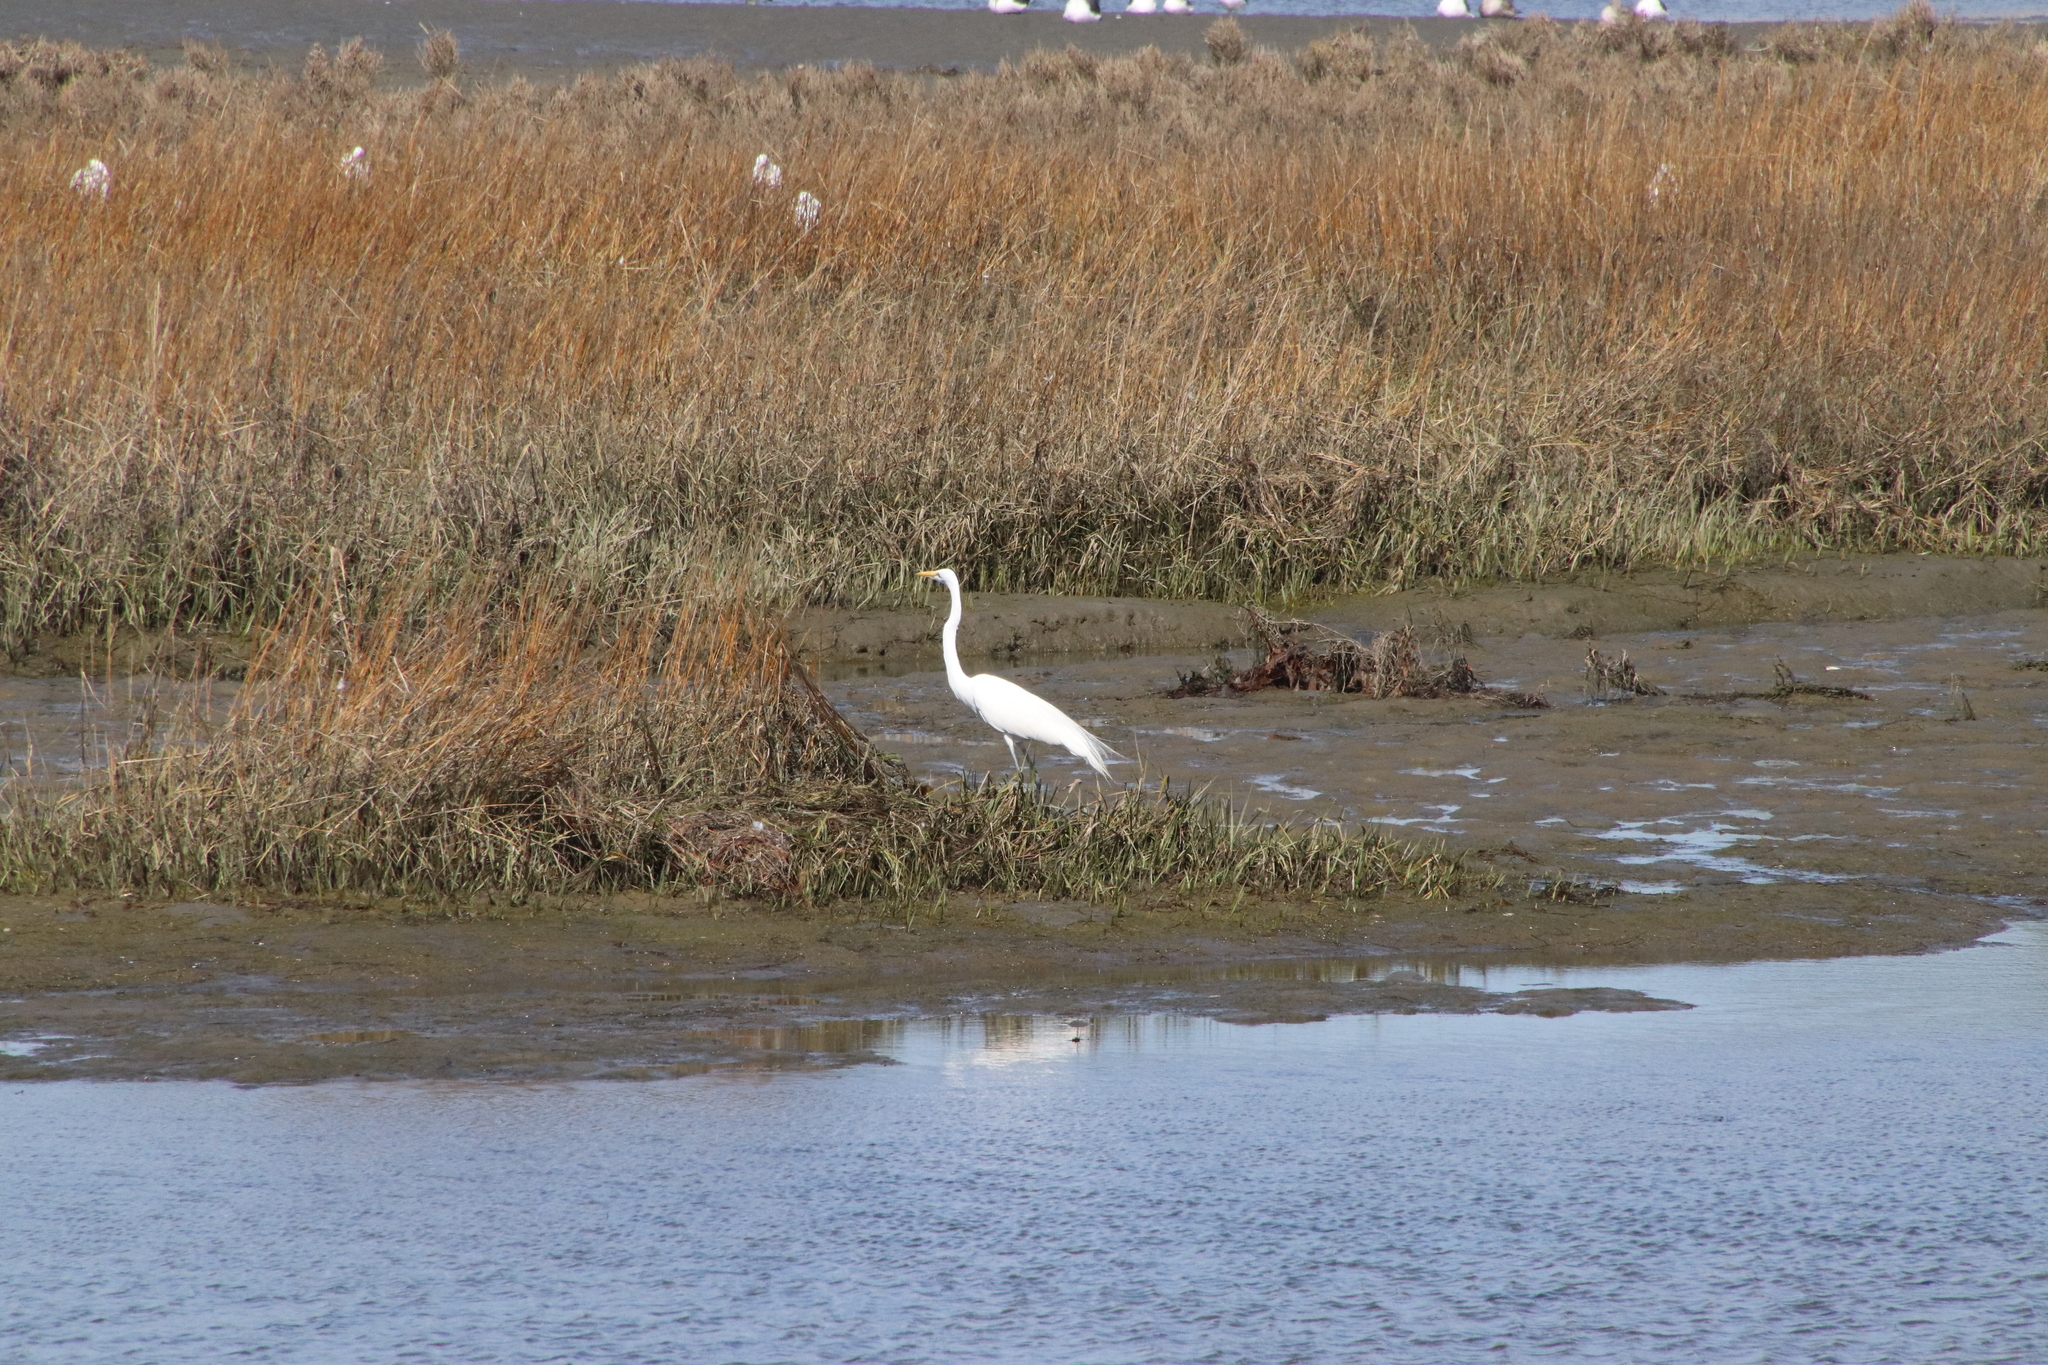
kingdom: Animalia
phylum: Chordata
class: Aves
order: Pelecaniformes
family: Ardeidae
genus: Ardea
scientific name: Ardea alba
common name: Great egret
